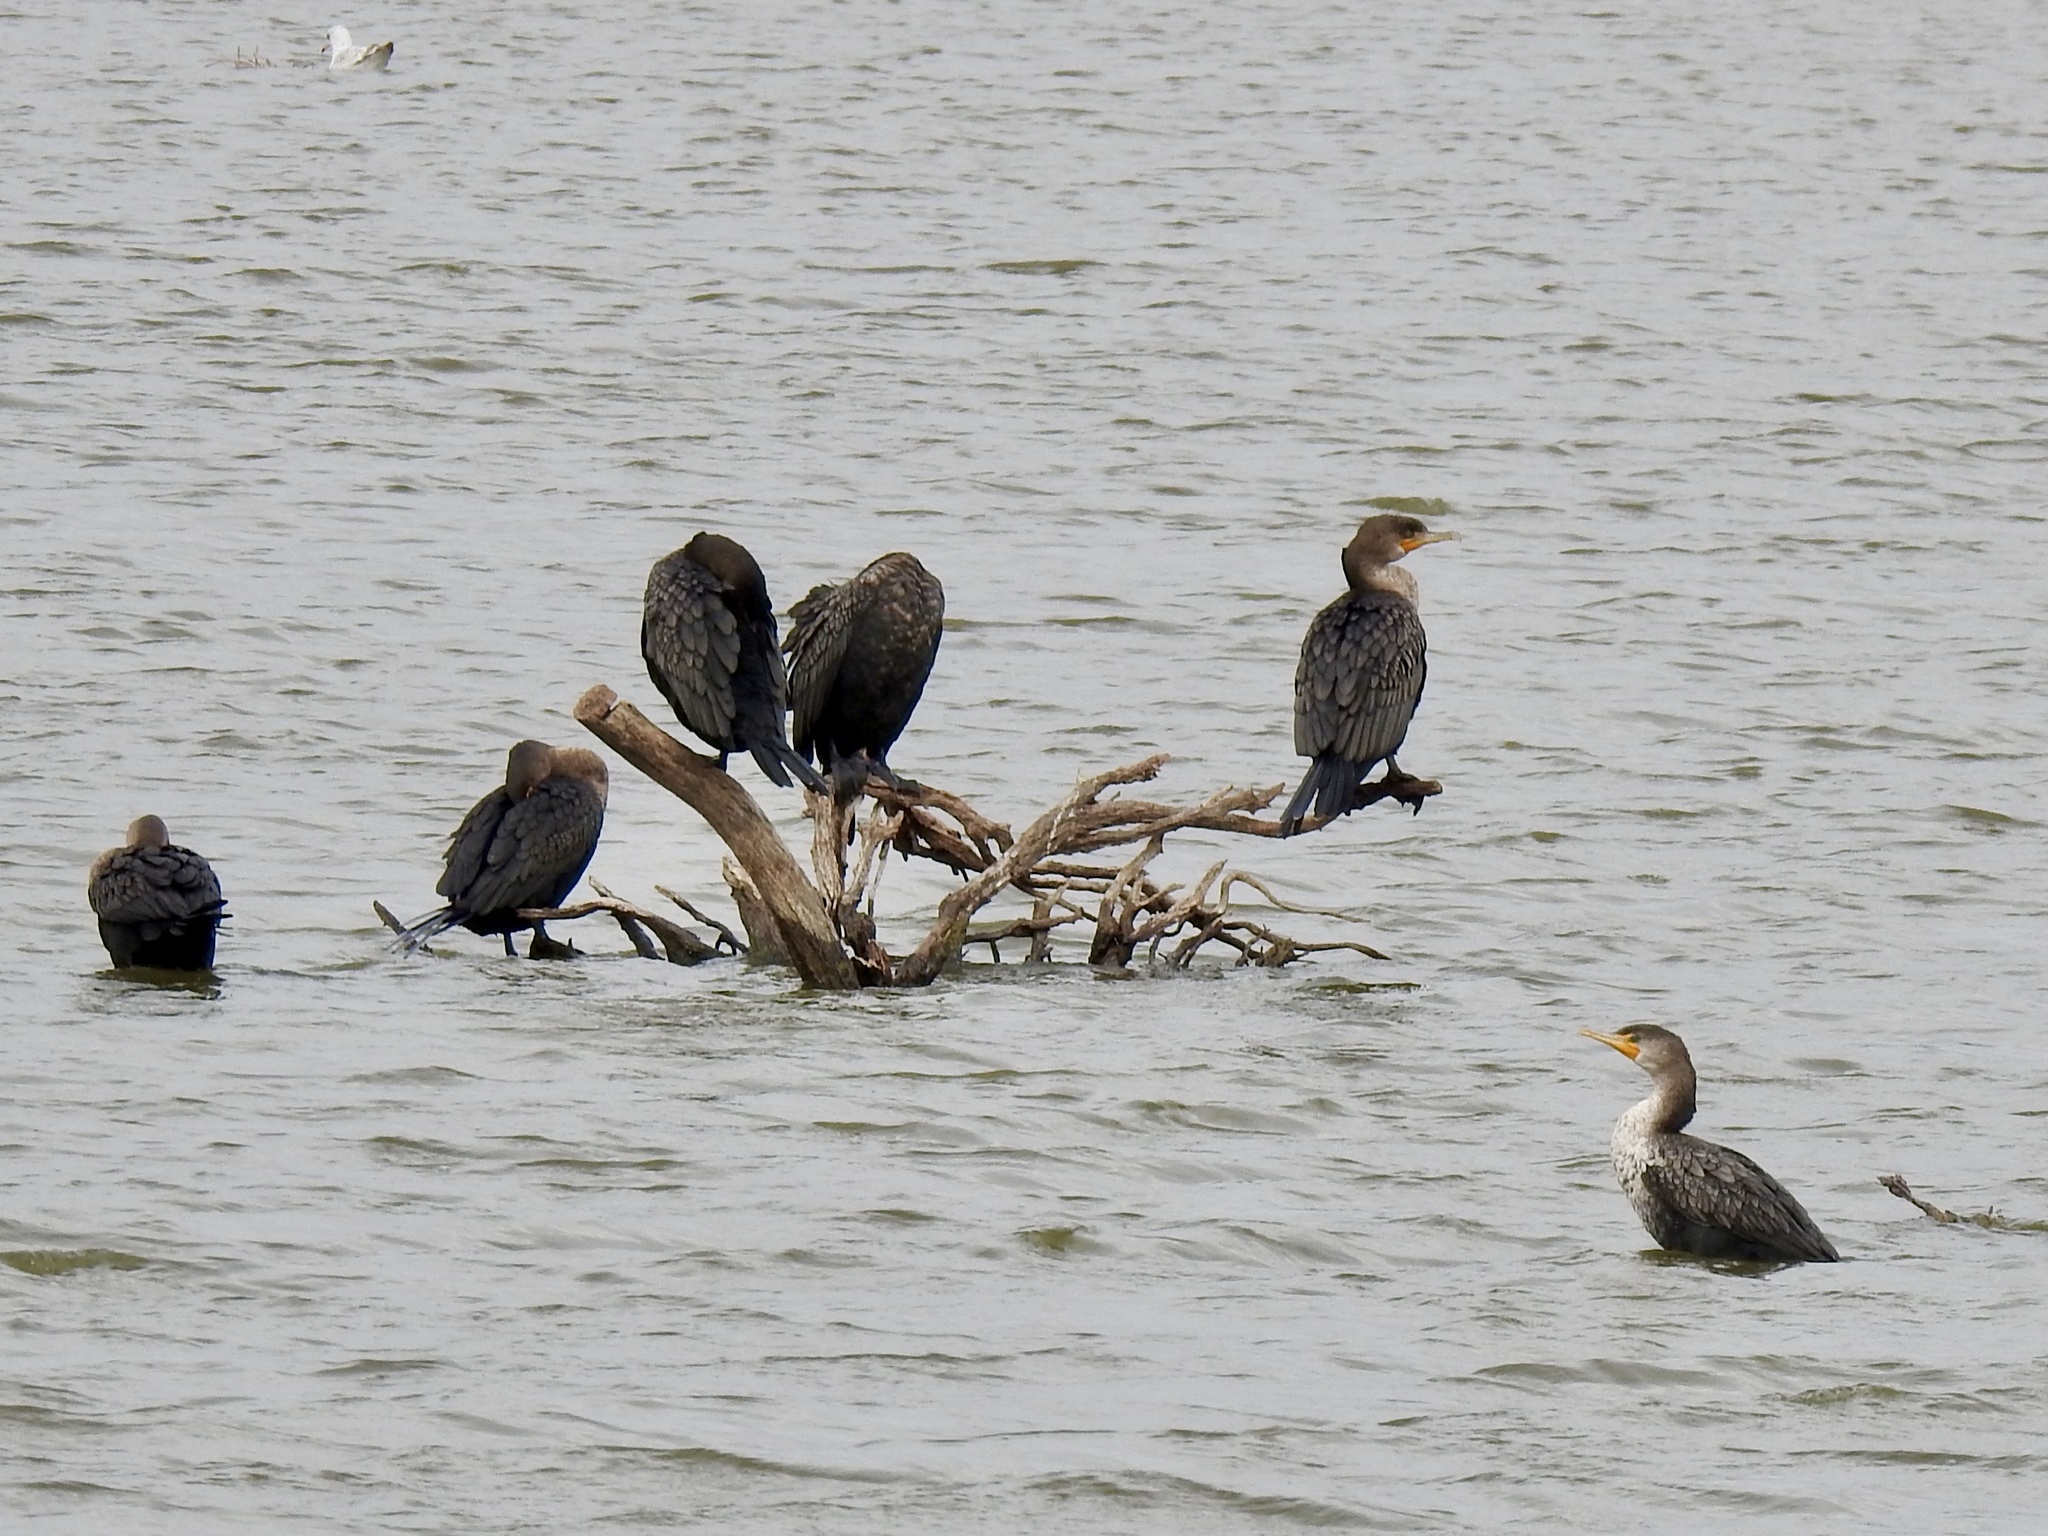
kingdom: Animalia
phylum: Chordata
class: Aves
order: Suliformes
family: Phalacrocoracidae
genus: Phalacrocorax
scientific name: Phalacrocorax auritus
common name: Double-crested cormorant
